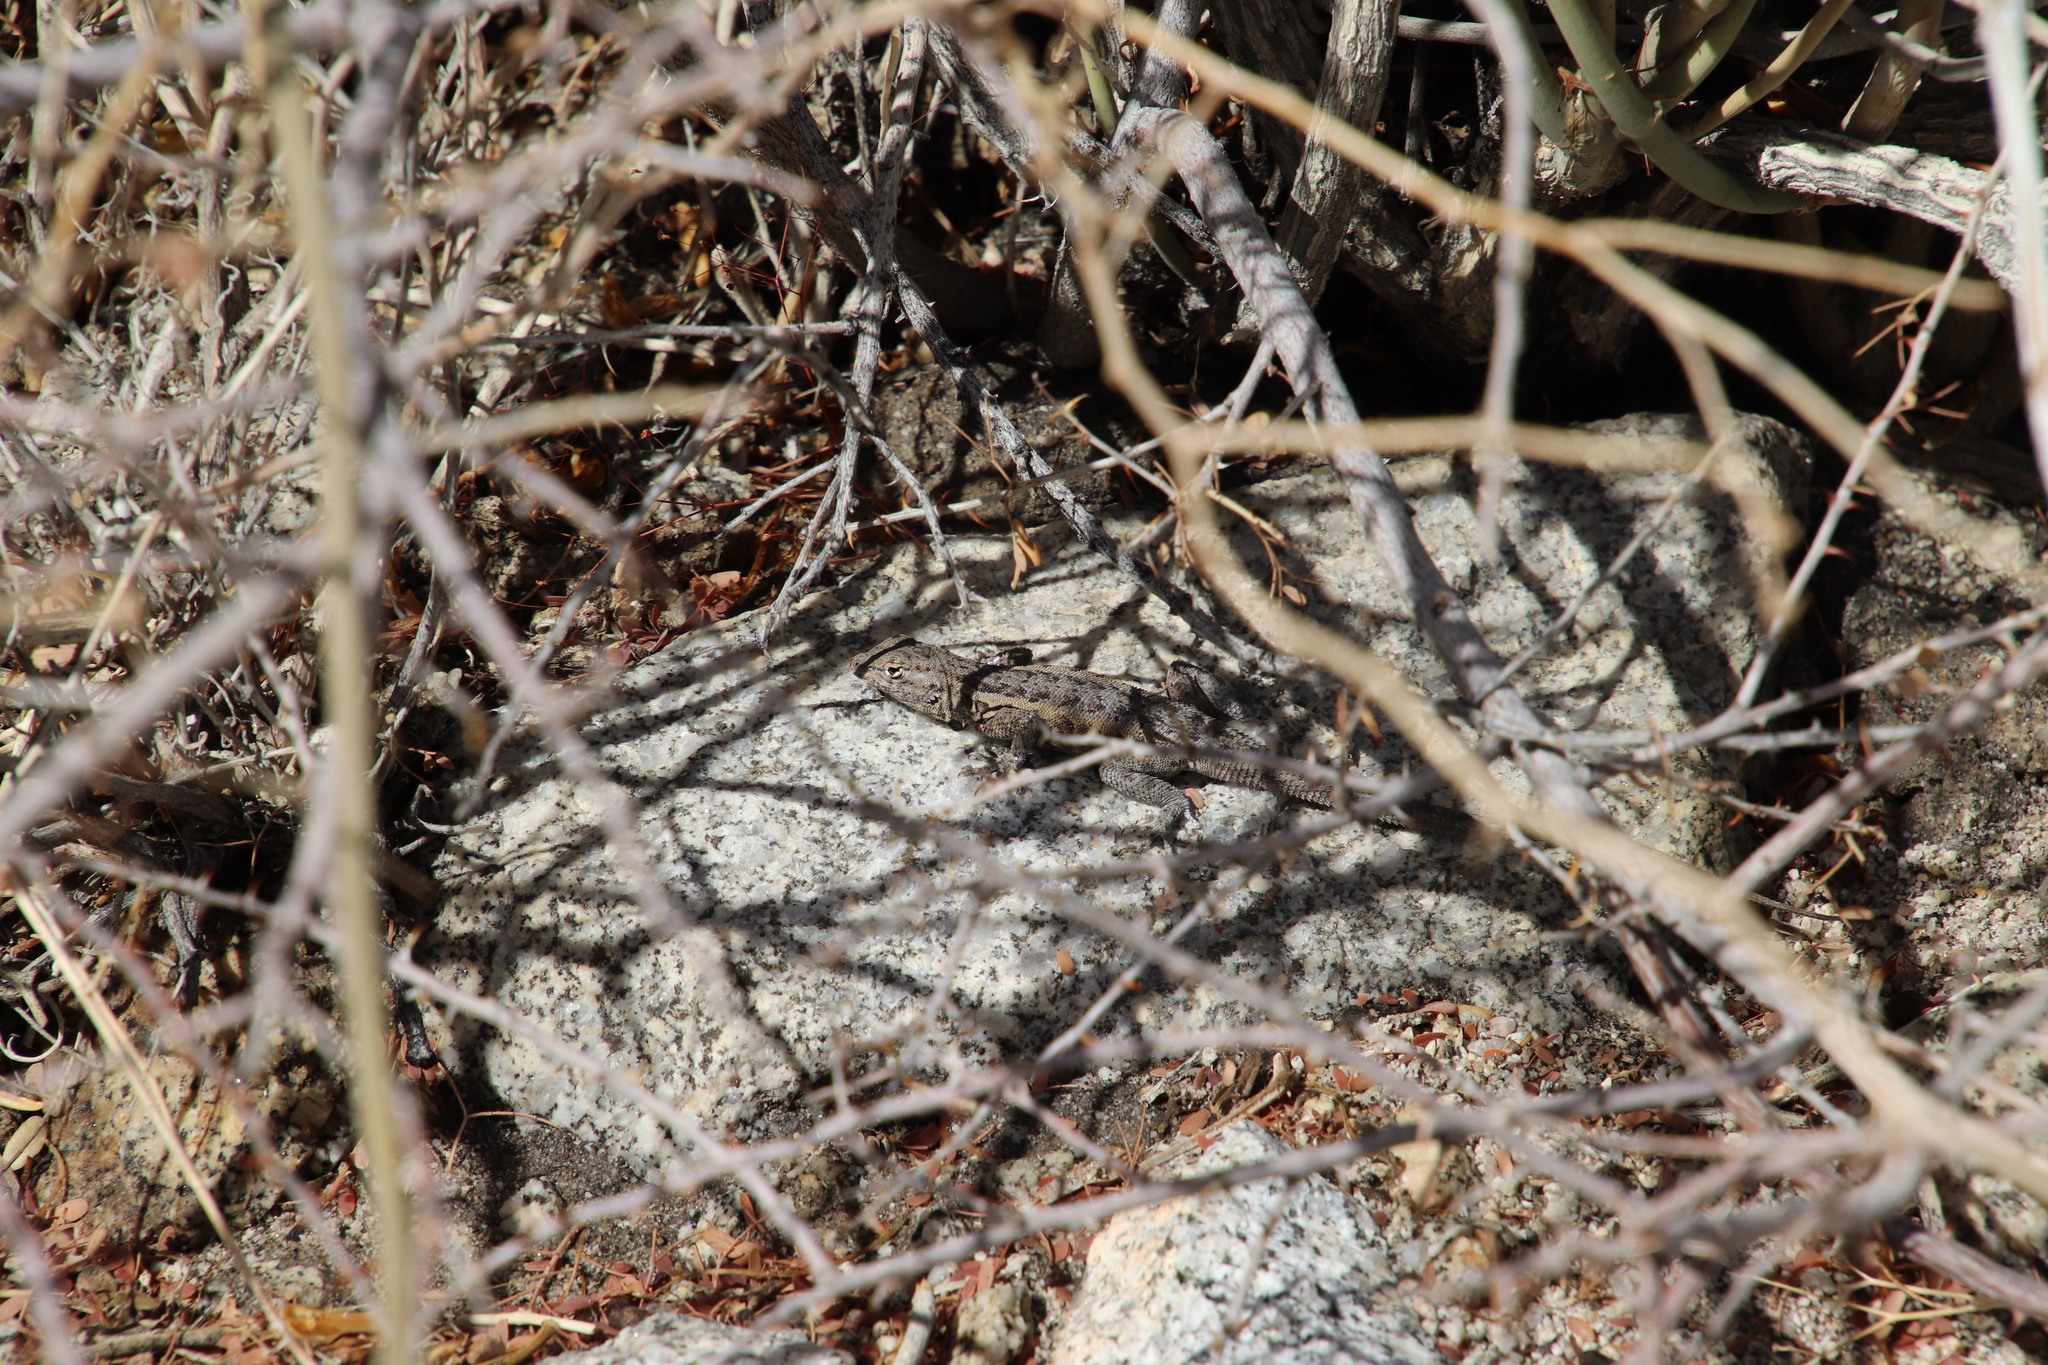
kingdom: Animalia
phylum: Chordata
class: Squamata
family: Phrynosomatidae
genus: Uta
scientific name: Uta stansburiana
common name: Side-blotched lizard
